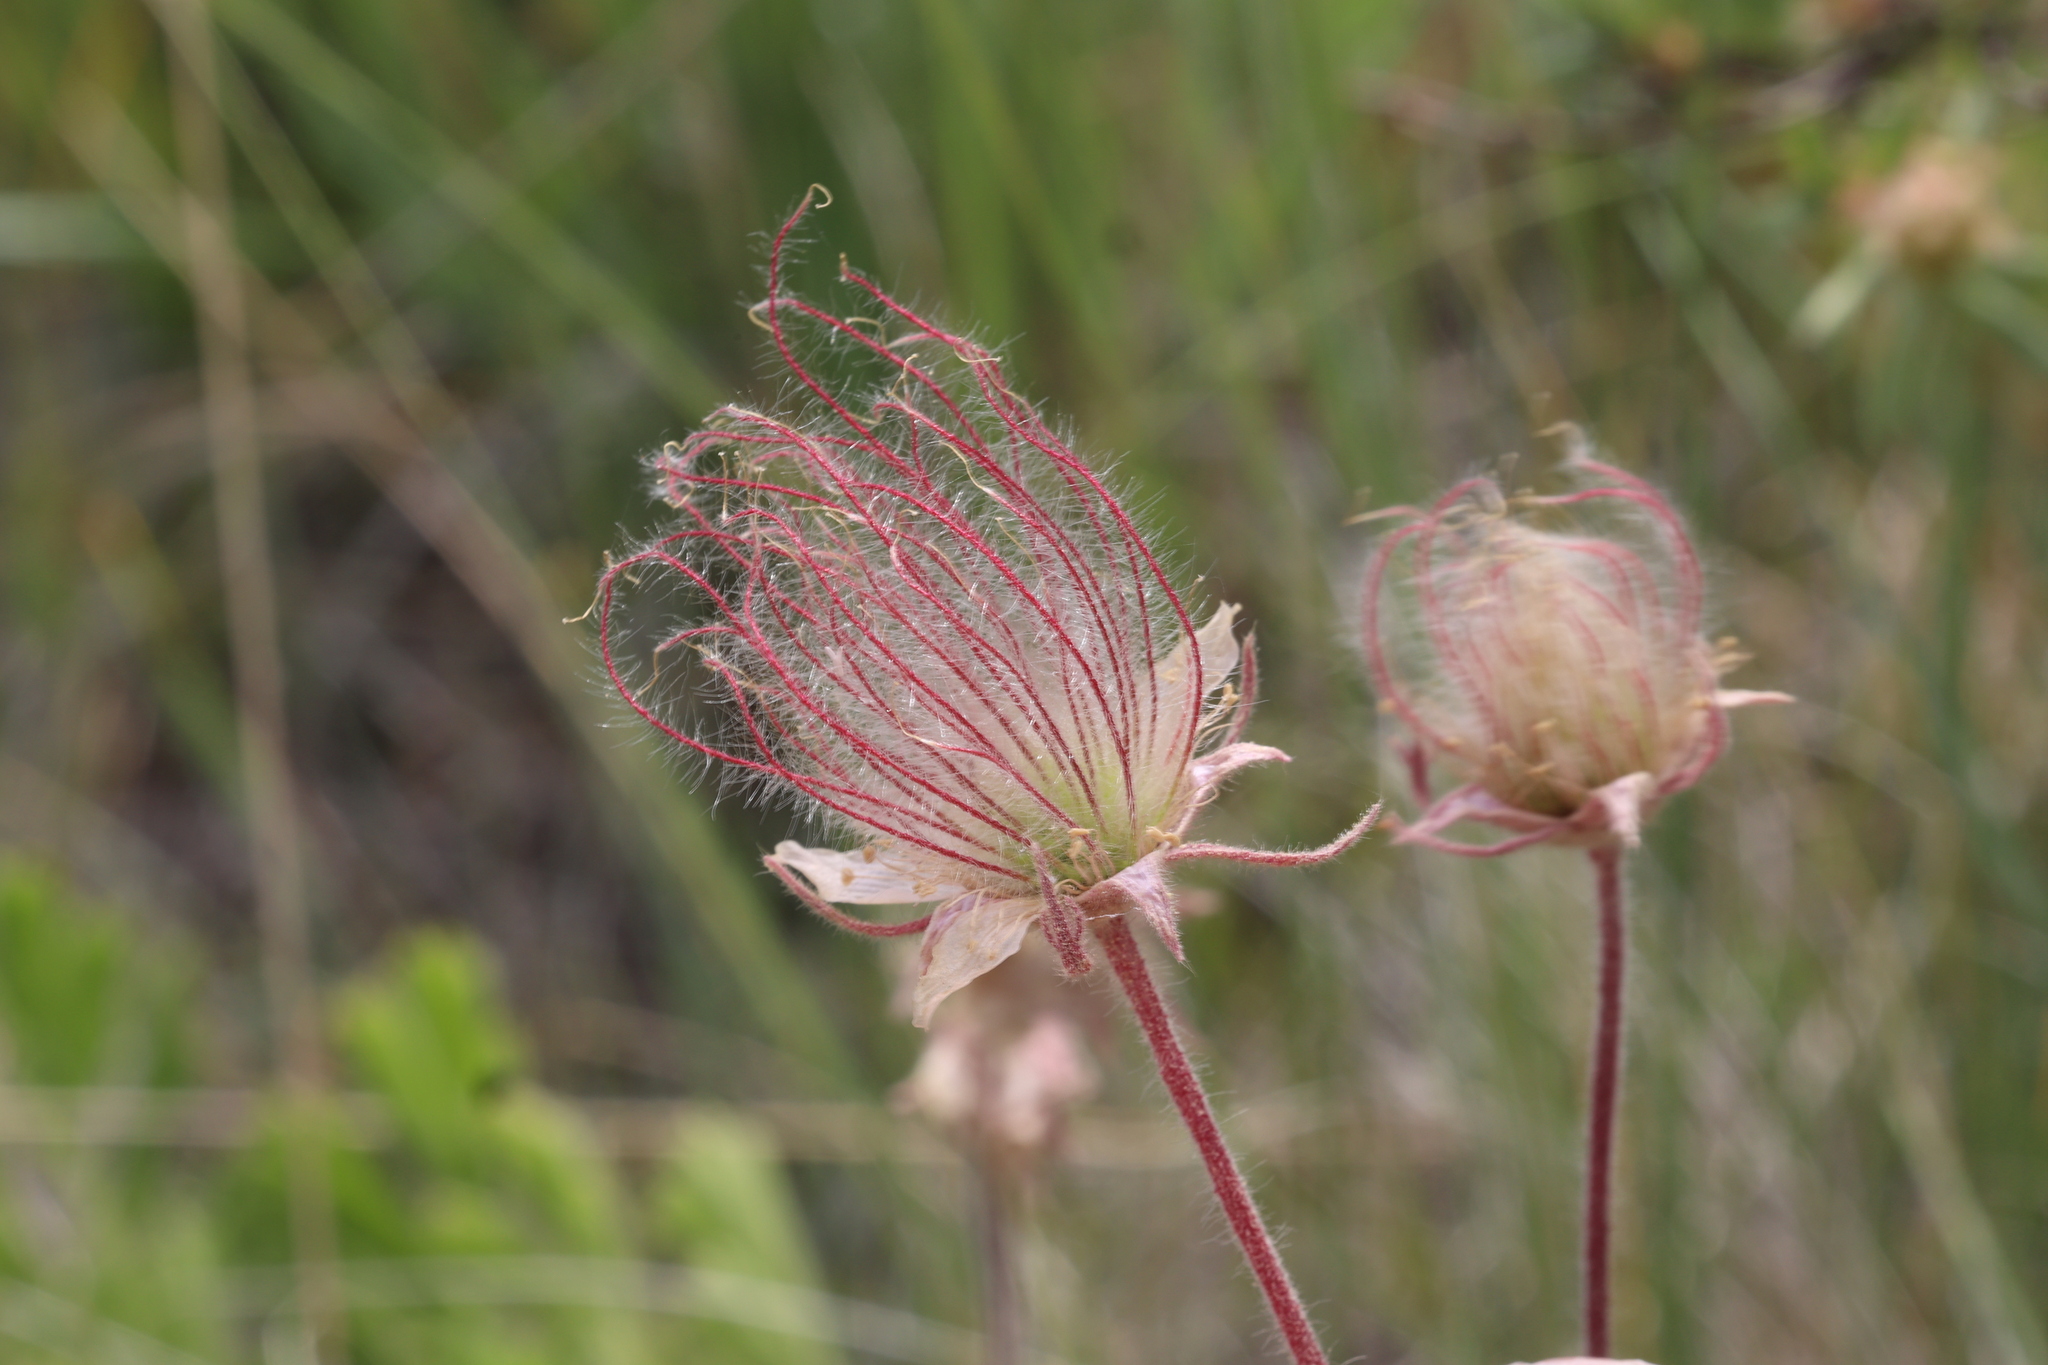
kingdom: Plantae
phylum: Tracheophyta
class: Magnoliopsida
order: Rosales
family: Rosaceae
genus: Geum
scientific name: Geum triflorum
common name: Old man's whiskers
